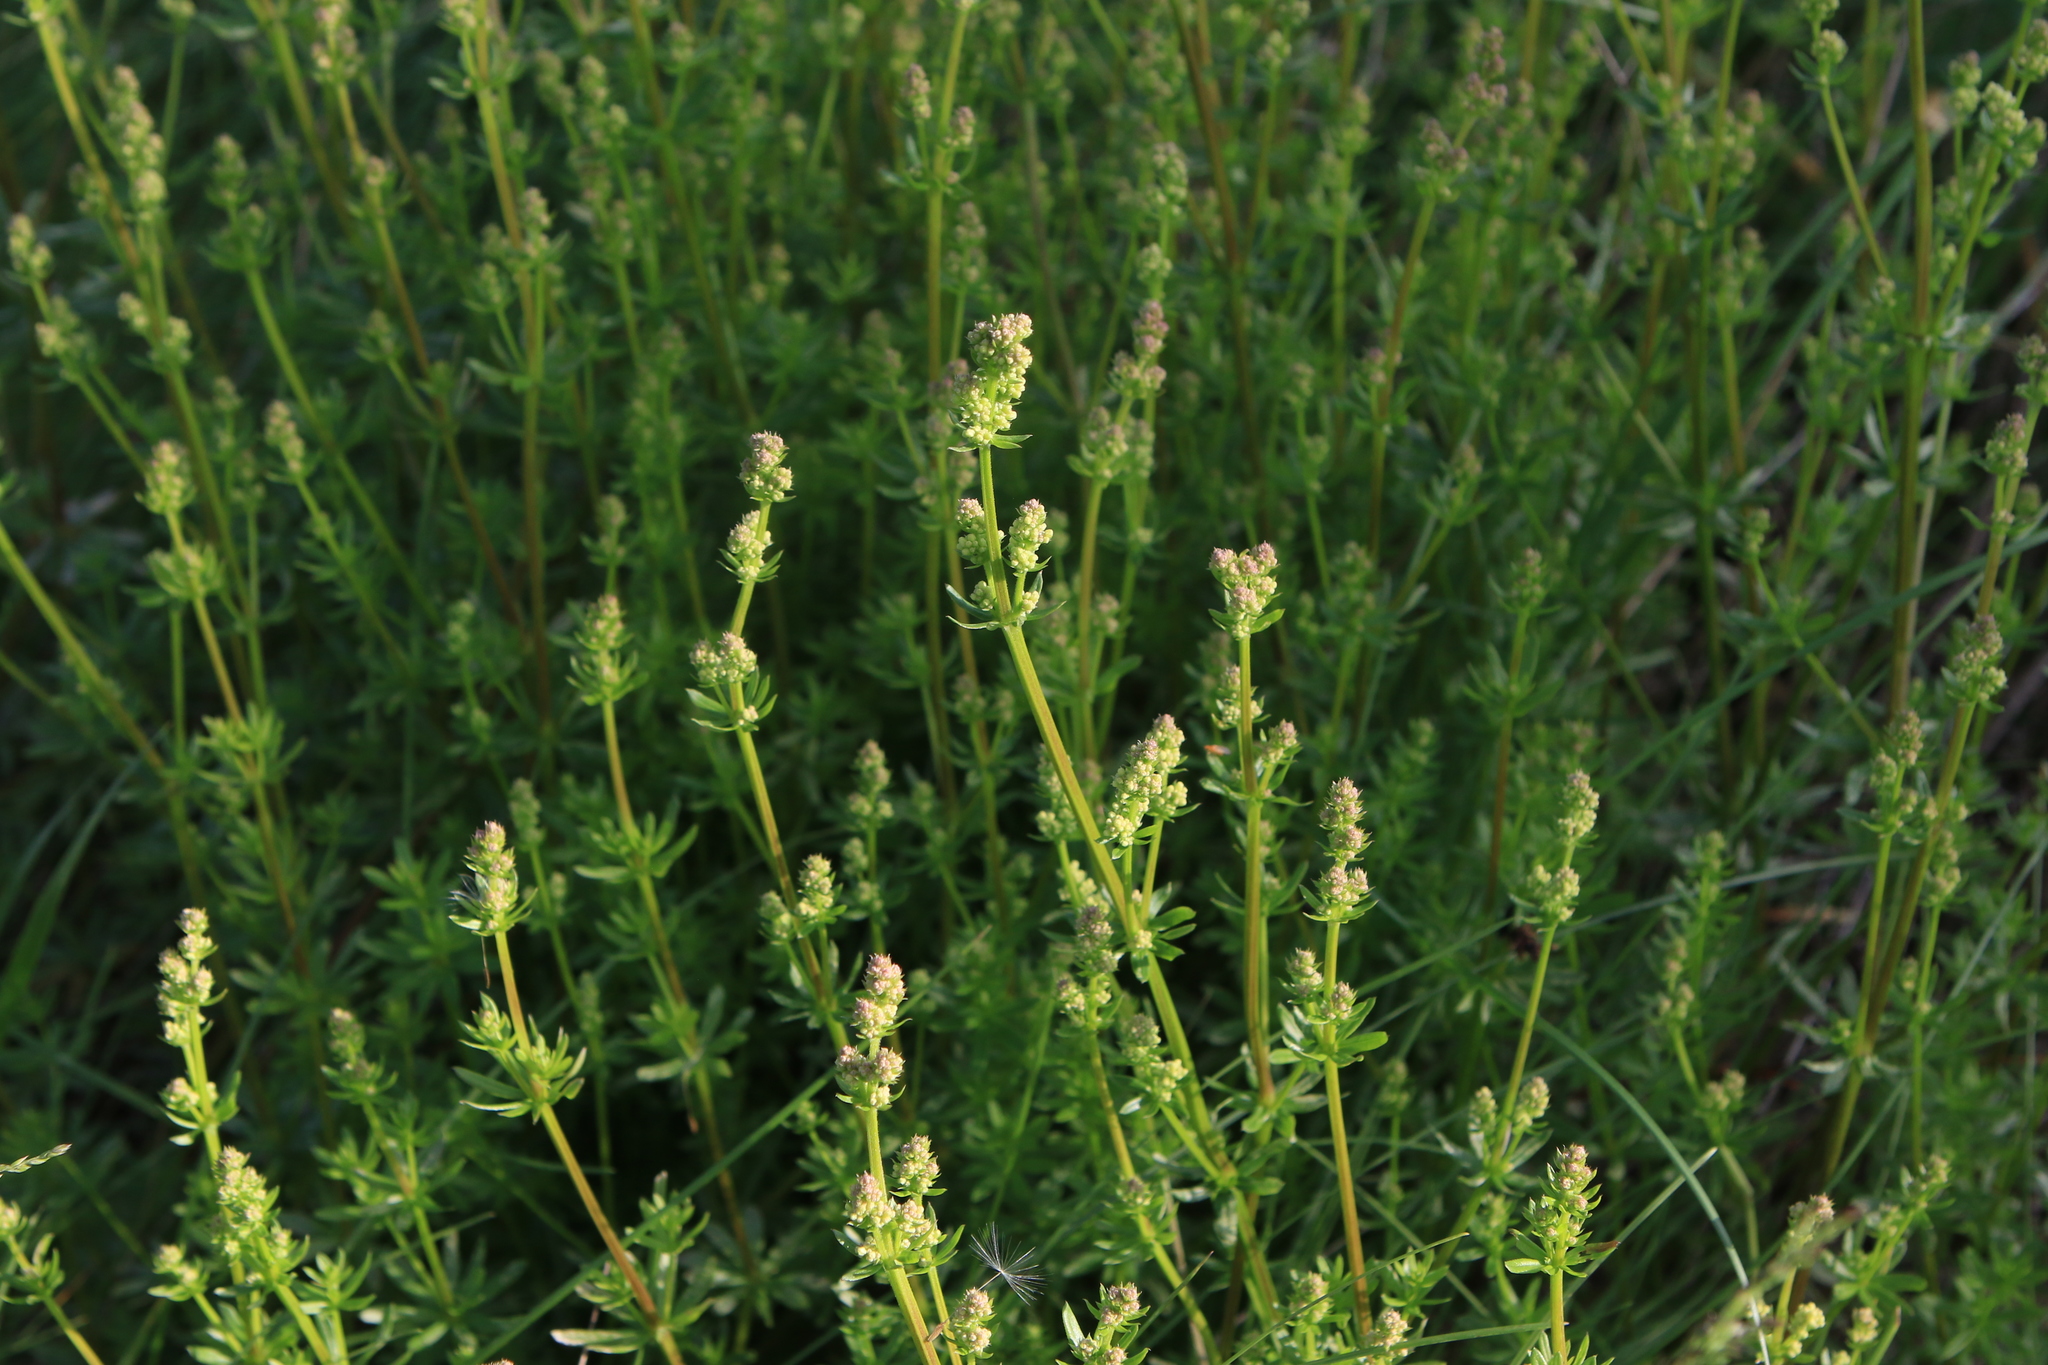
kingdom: Plantae
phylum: Tracheophyta
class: Magnoliopsida
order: Gentianales
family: Rubiaceae
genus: Galium
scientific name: Galium mollugo
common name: Hedge bedstraw
